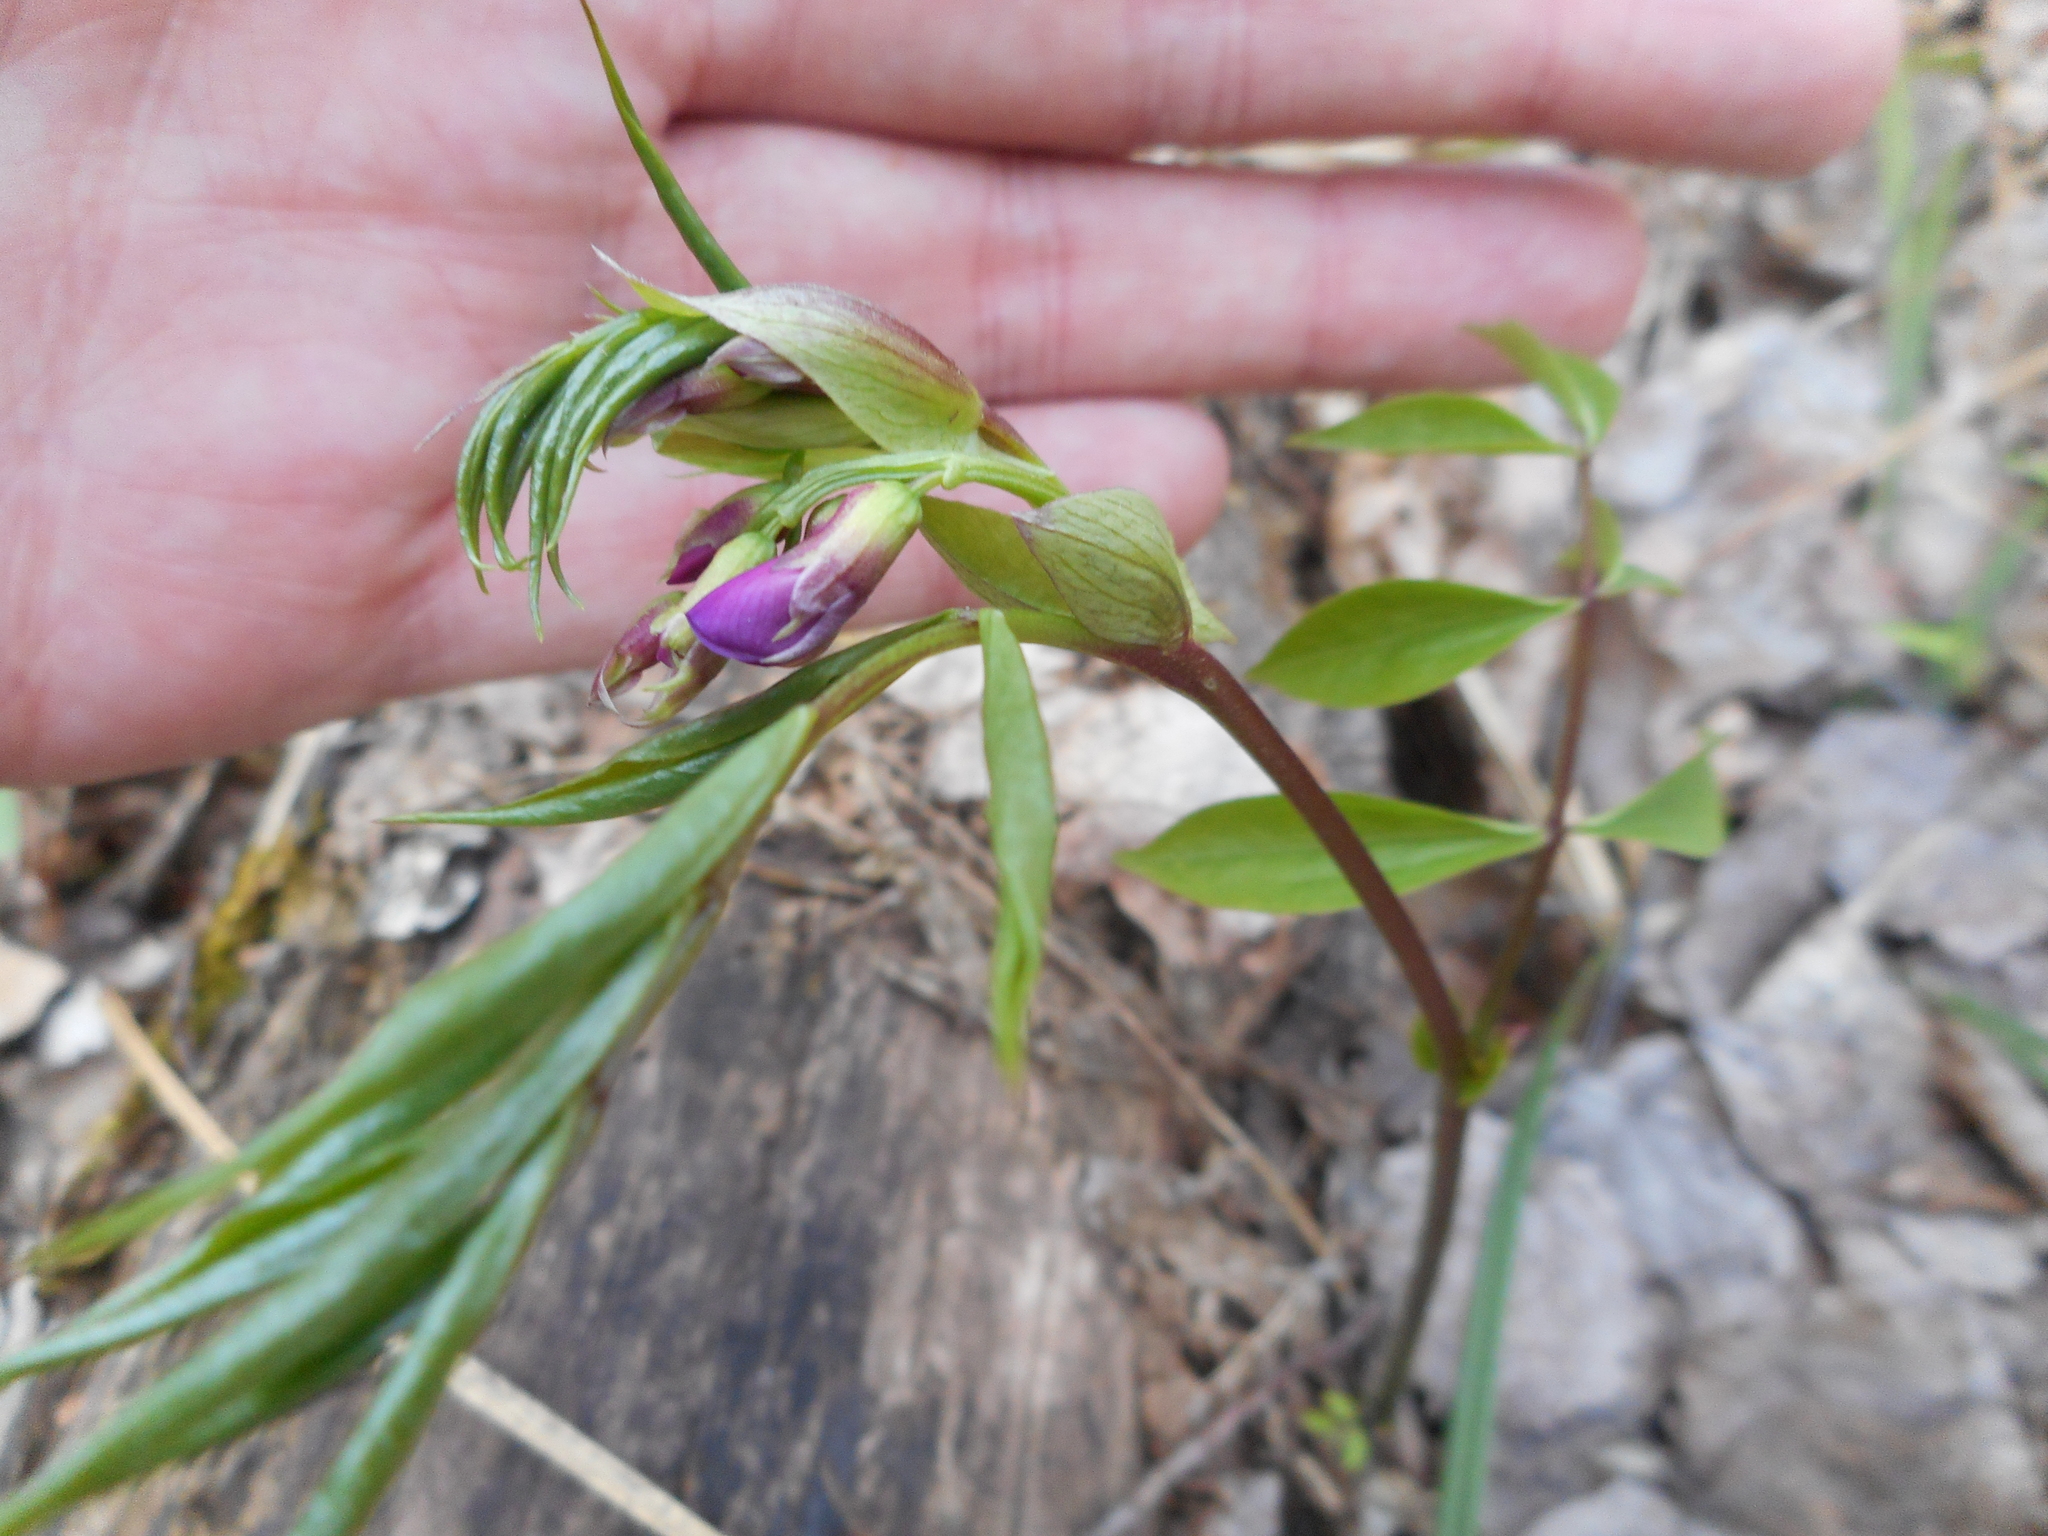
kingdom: Plantae
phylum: Tracheophyta
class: Magnoliopsida
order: Fabales
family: Fabaceae
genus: Lathyrus
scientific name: Lathyrus vernus
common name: Spring pea
